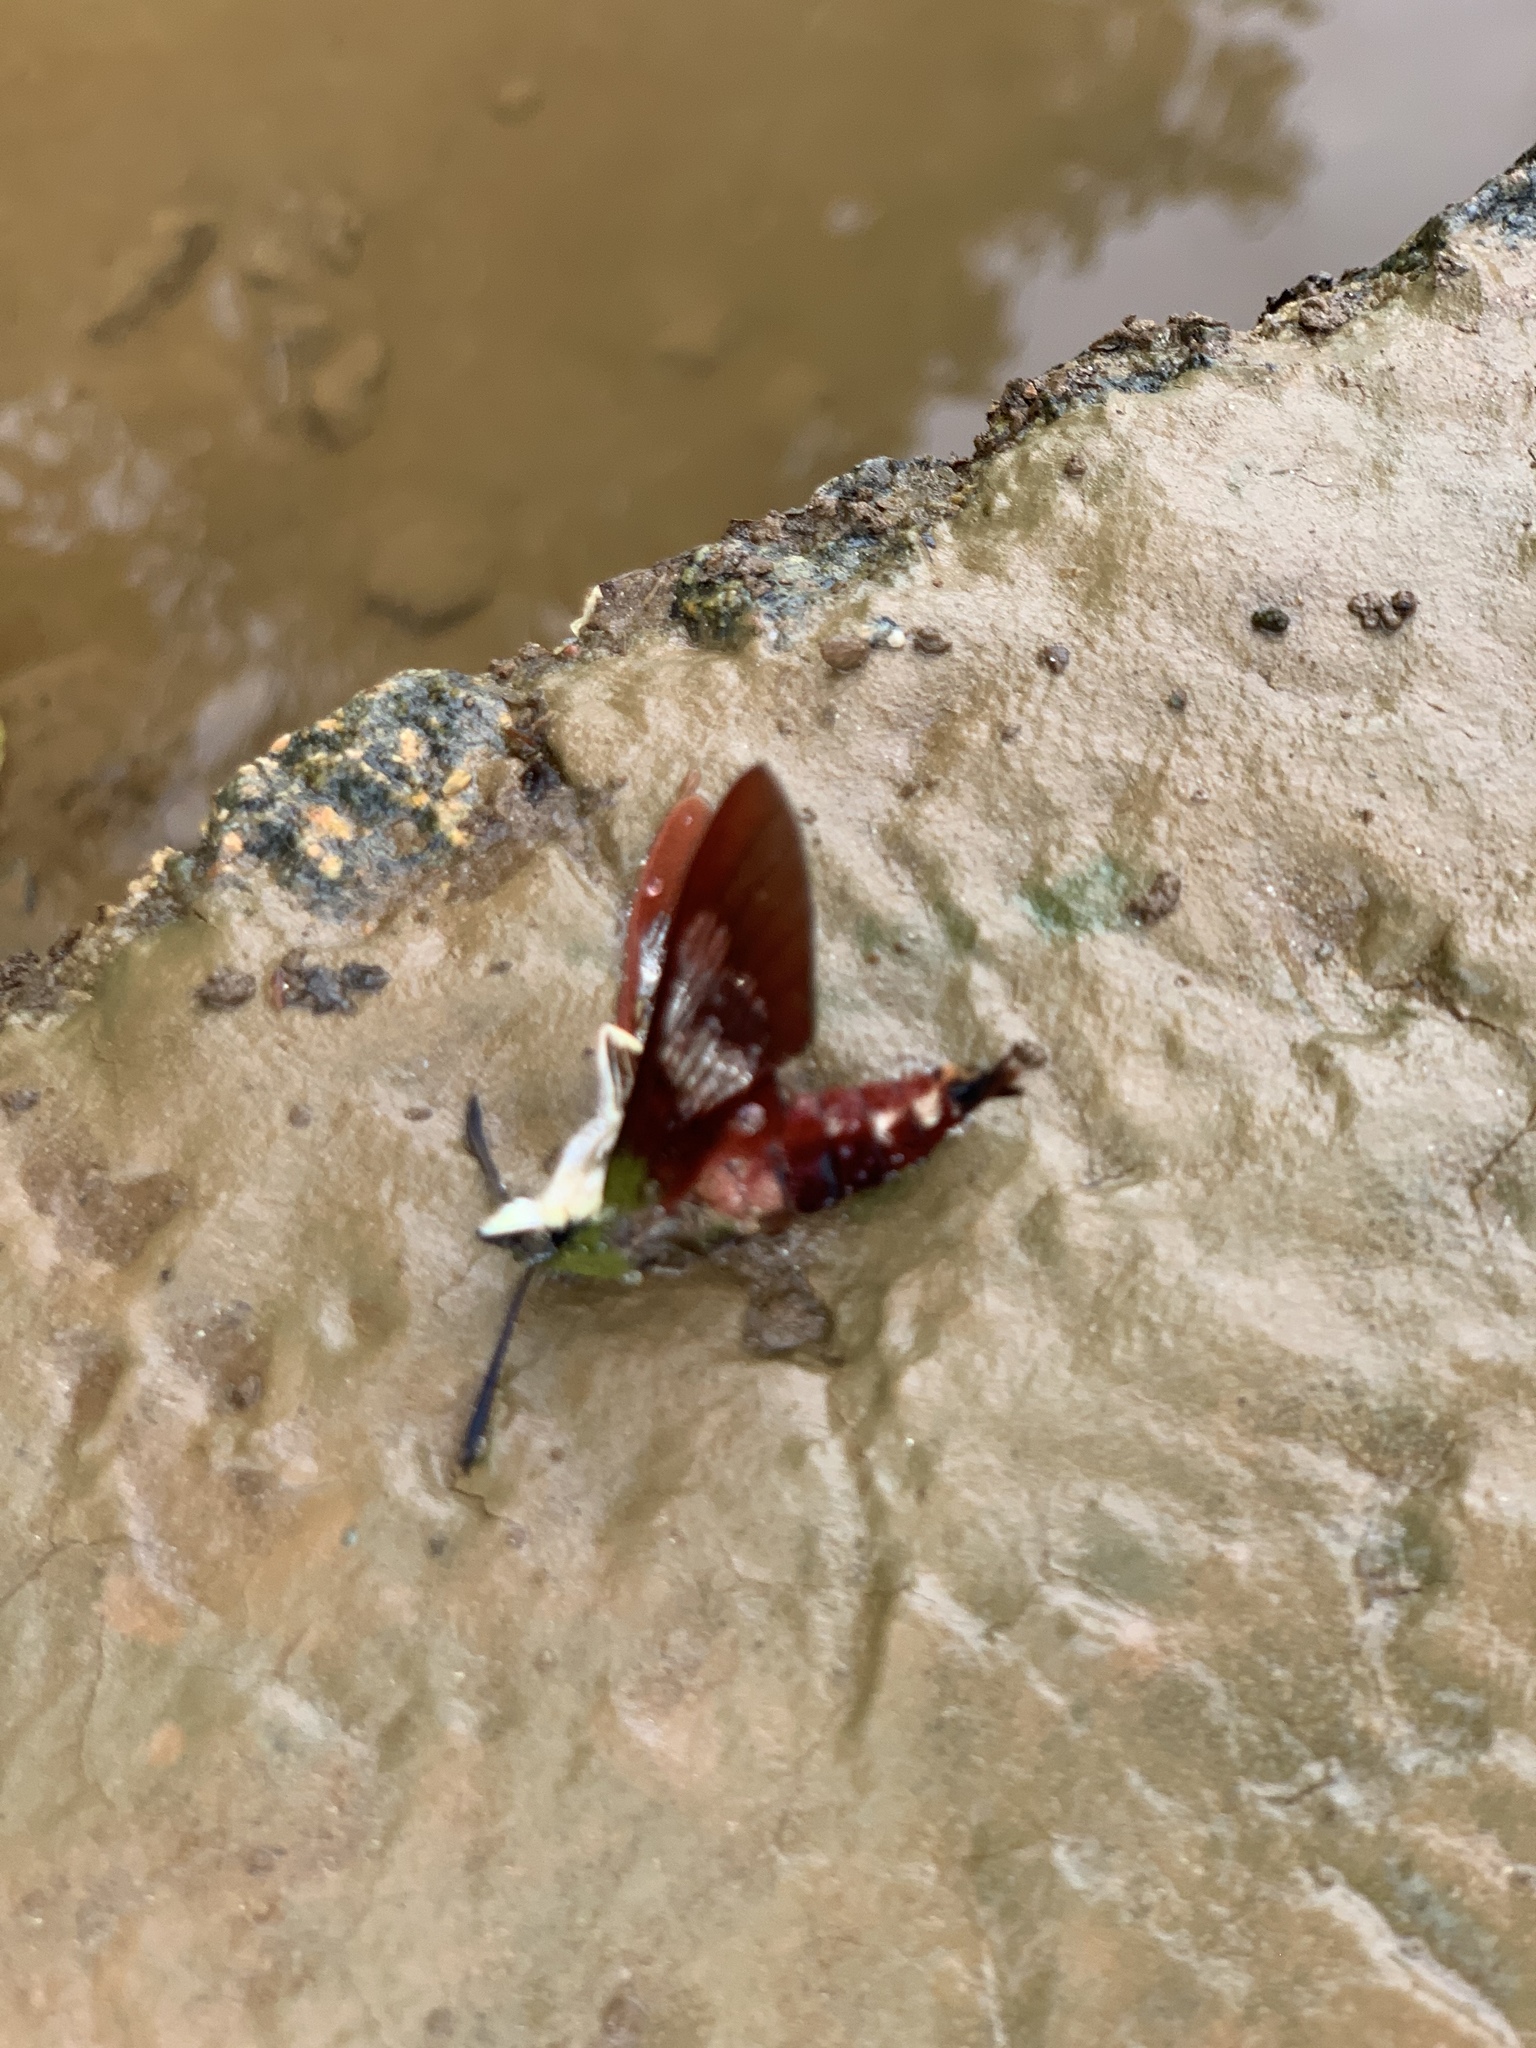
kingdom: Animalia
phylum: Arthropoda
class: Insecta
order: Lepidoptera
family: Sphingidae
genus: Hemaris
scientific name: Hemaris thysbe
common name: Common clear-wing
